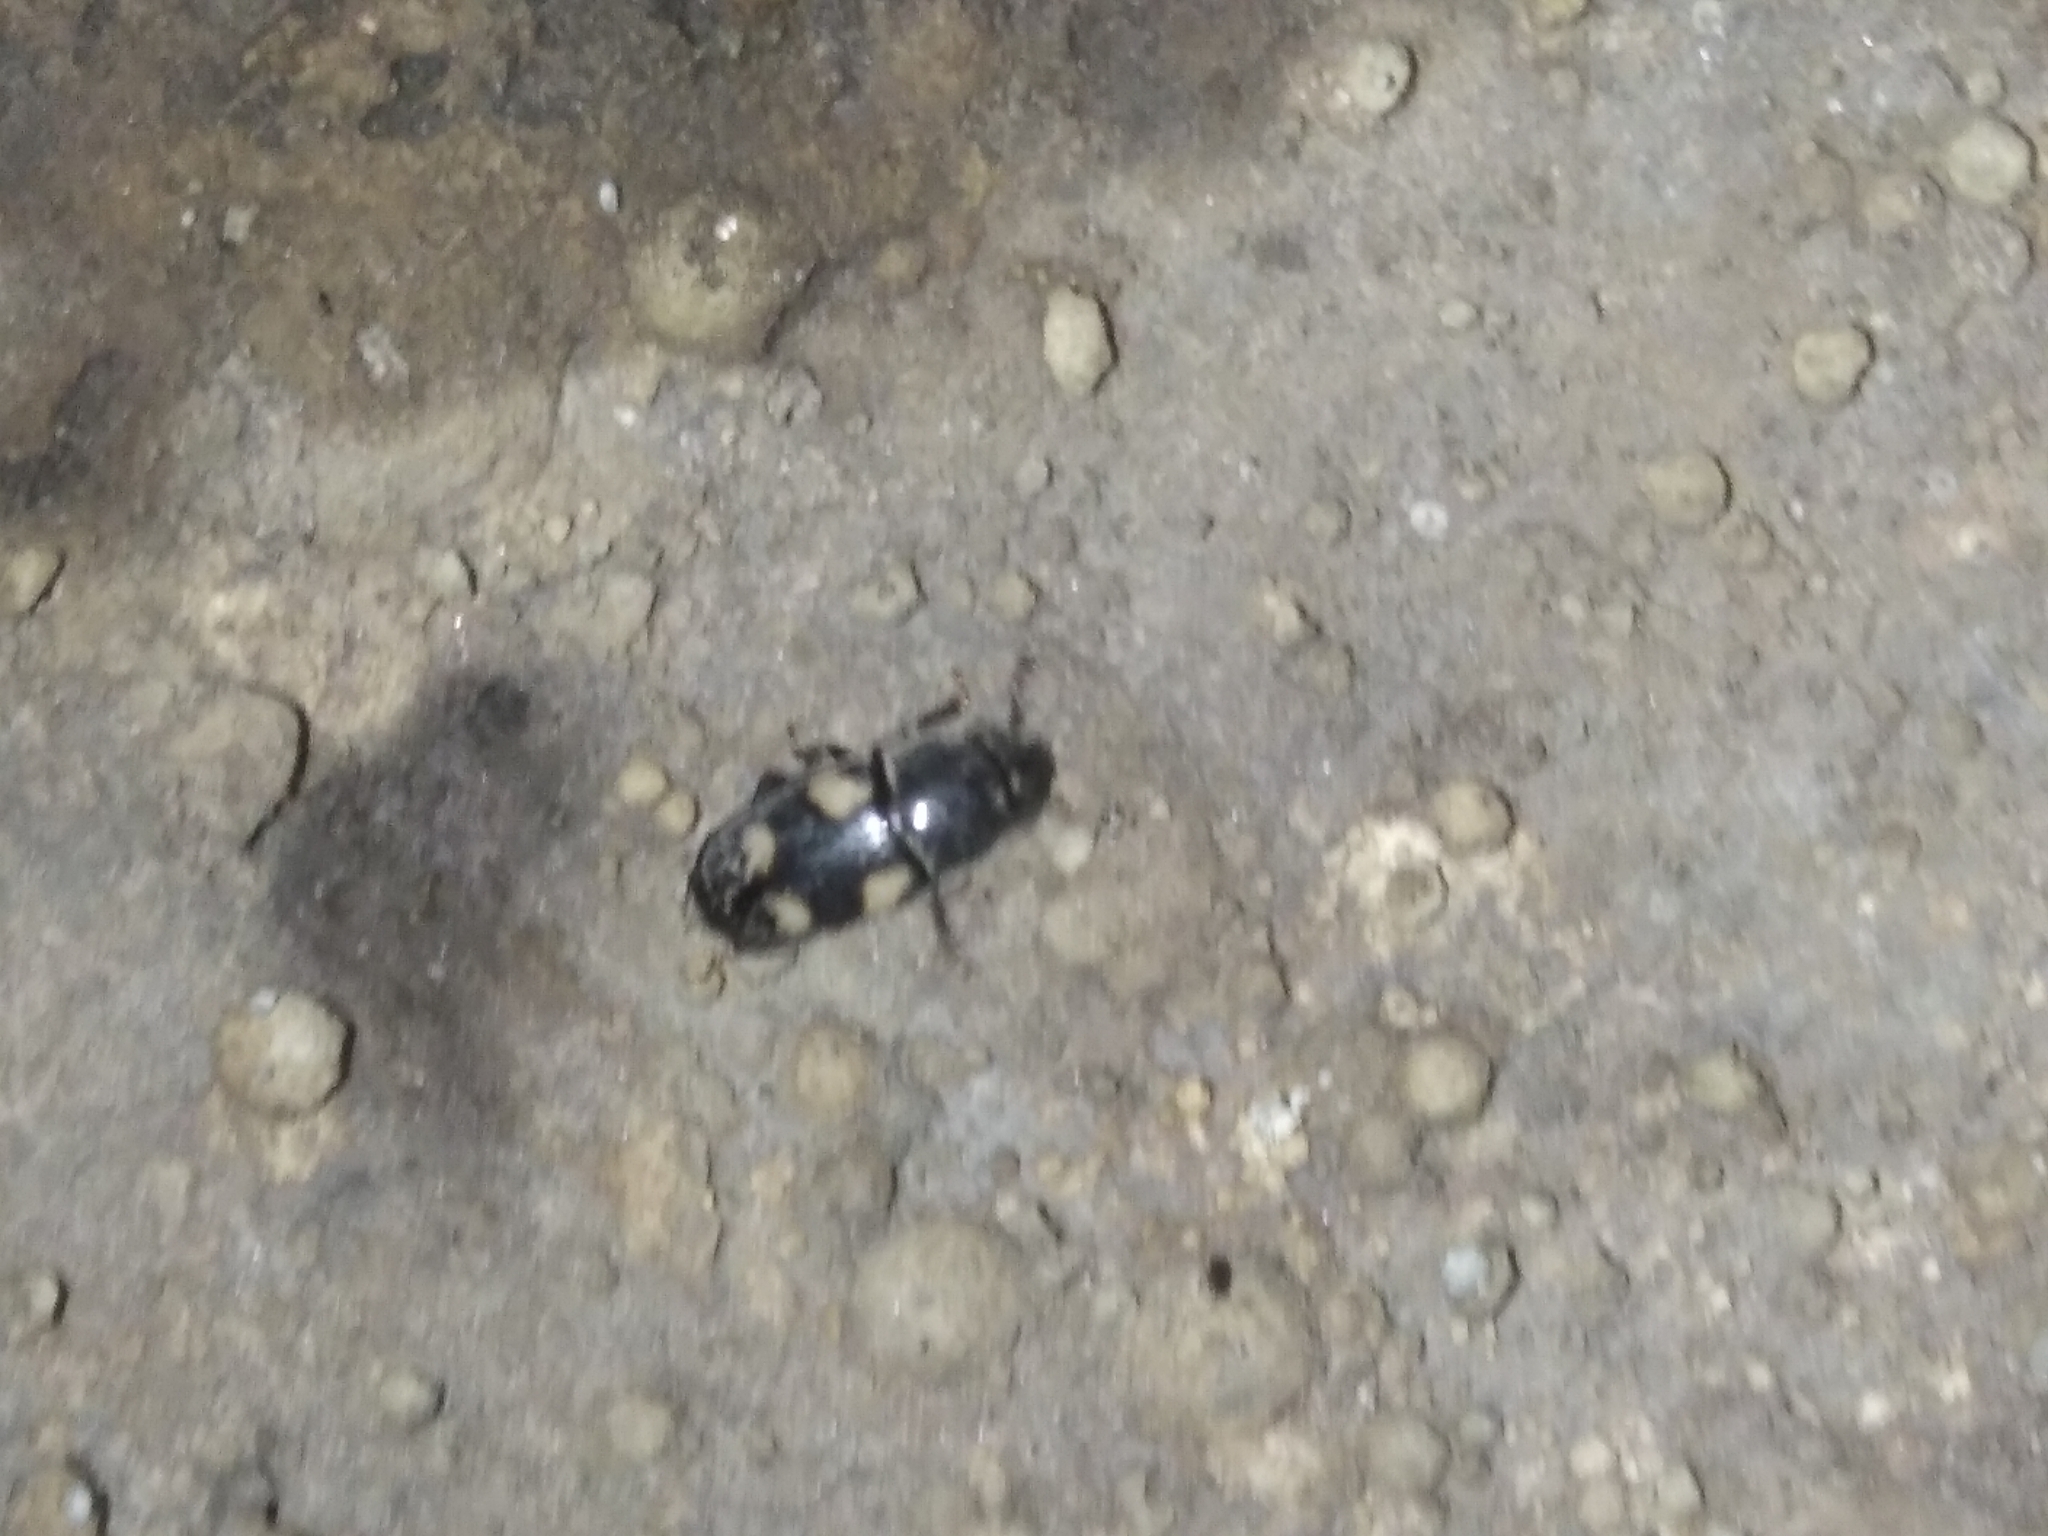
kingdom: Animalia
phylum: Arthropoda
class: Insecta
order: Coleoptera
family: Nitidulidae
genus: Glischrochilus
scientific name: Glischrochilus quadrisignatus
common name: Picnic beetle
